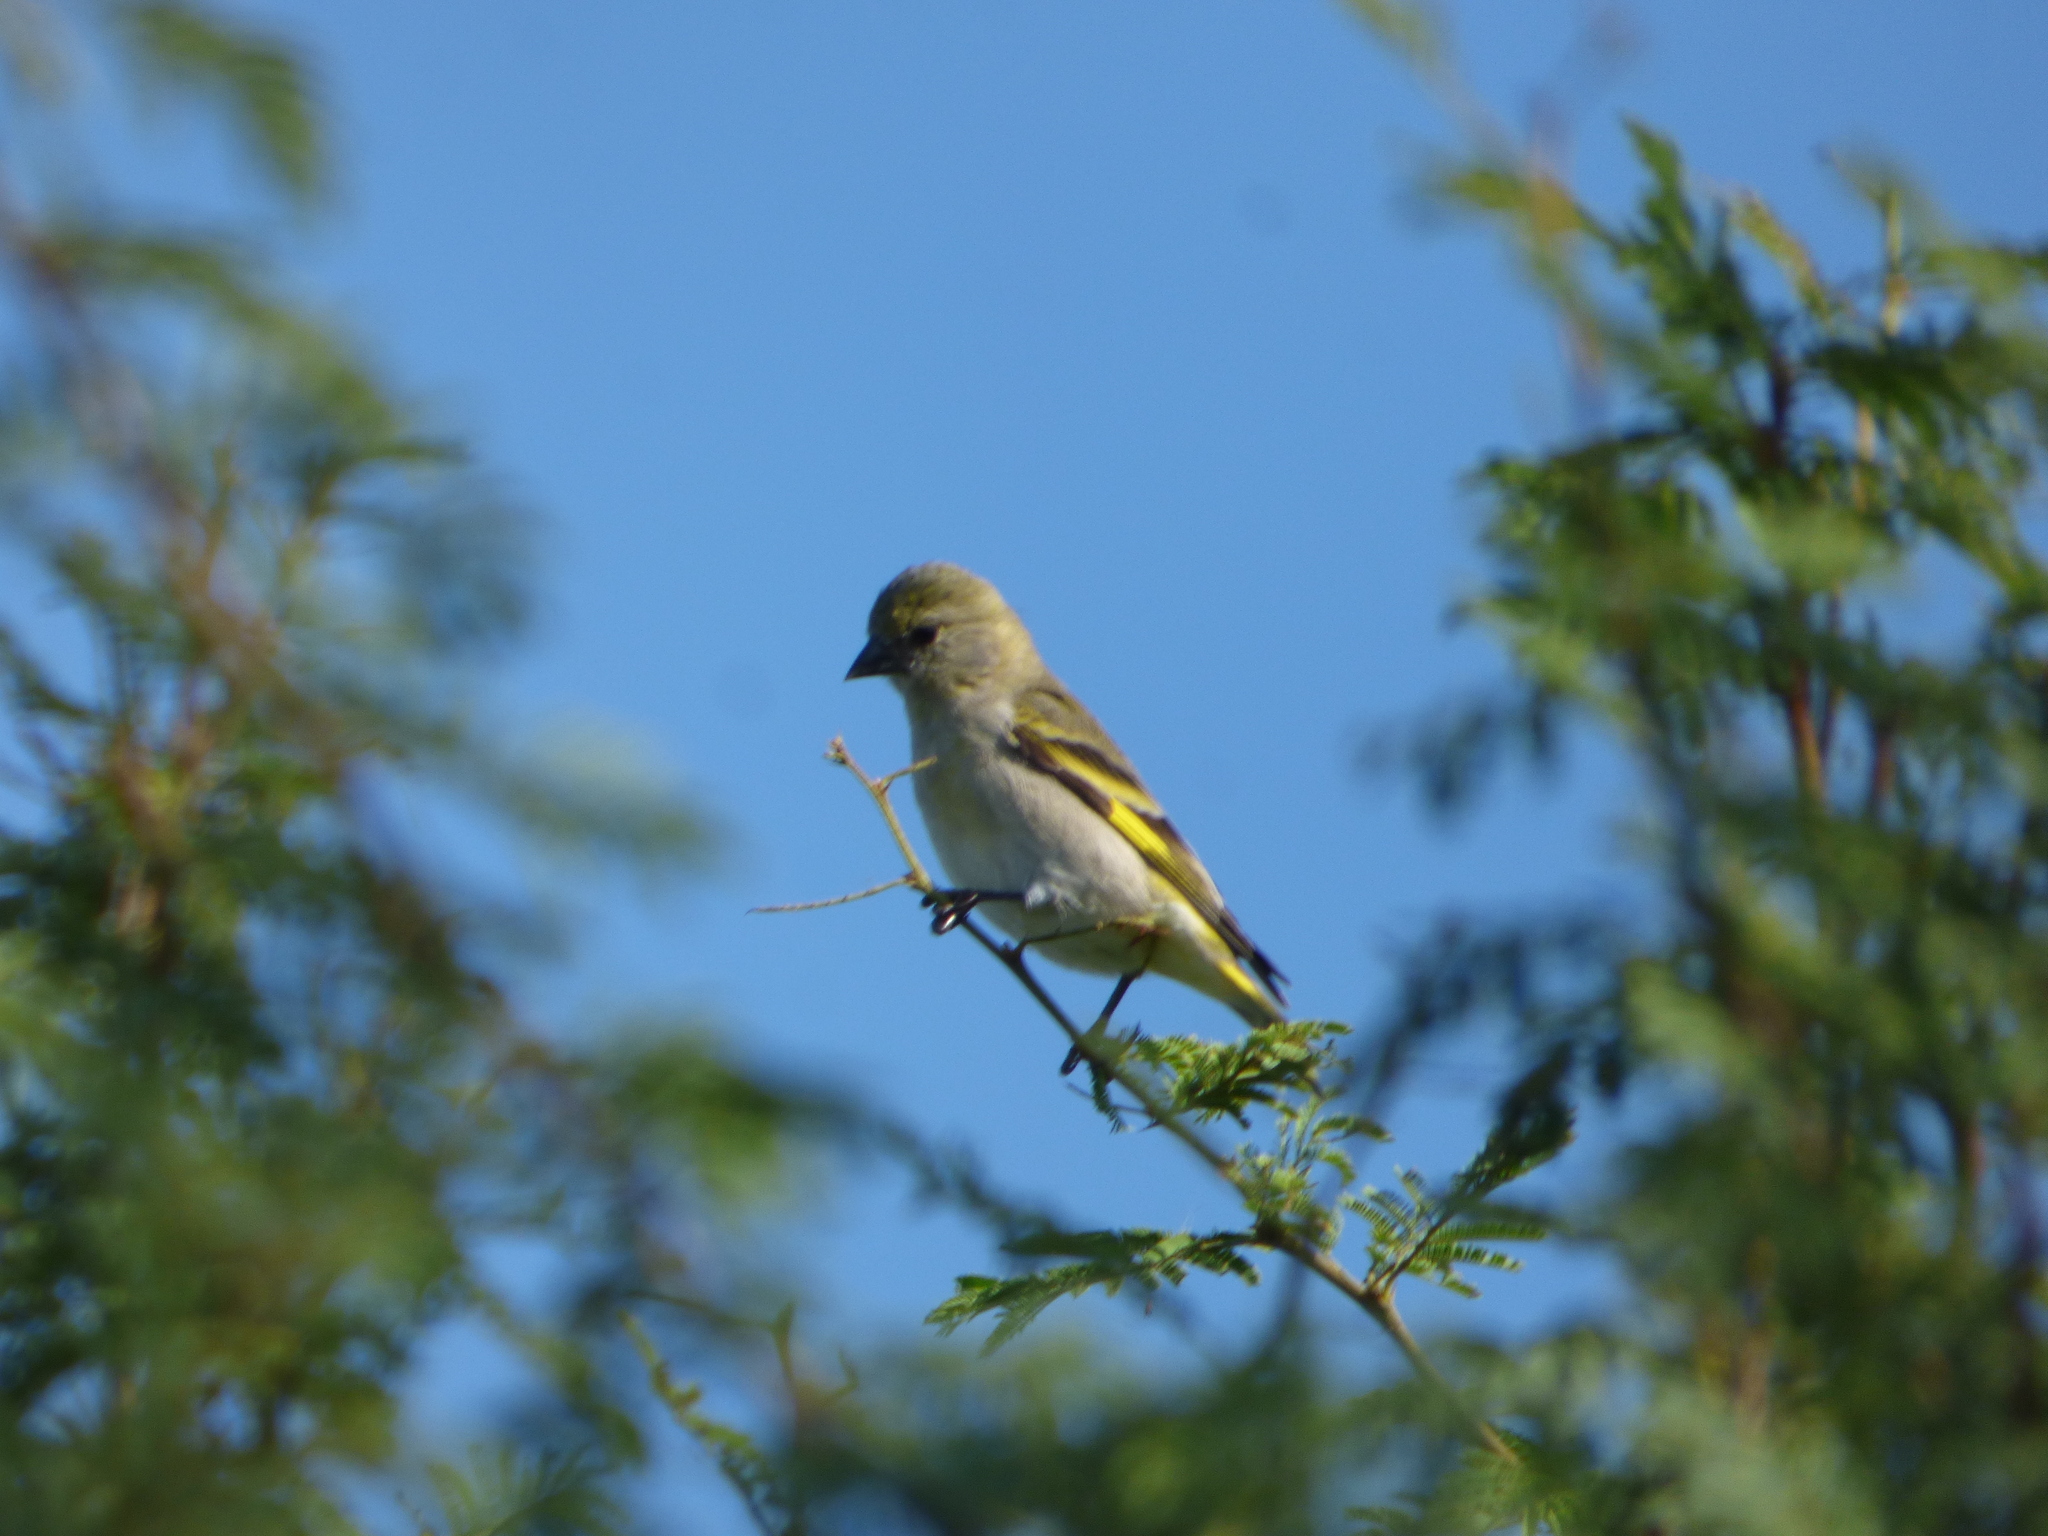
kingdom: Animalia
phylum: Chordata
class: Aves
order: Passeriformes
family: Fringillidae
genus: Spinus
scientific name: Spinus magellanicus
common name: Hooded siskin
